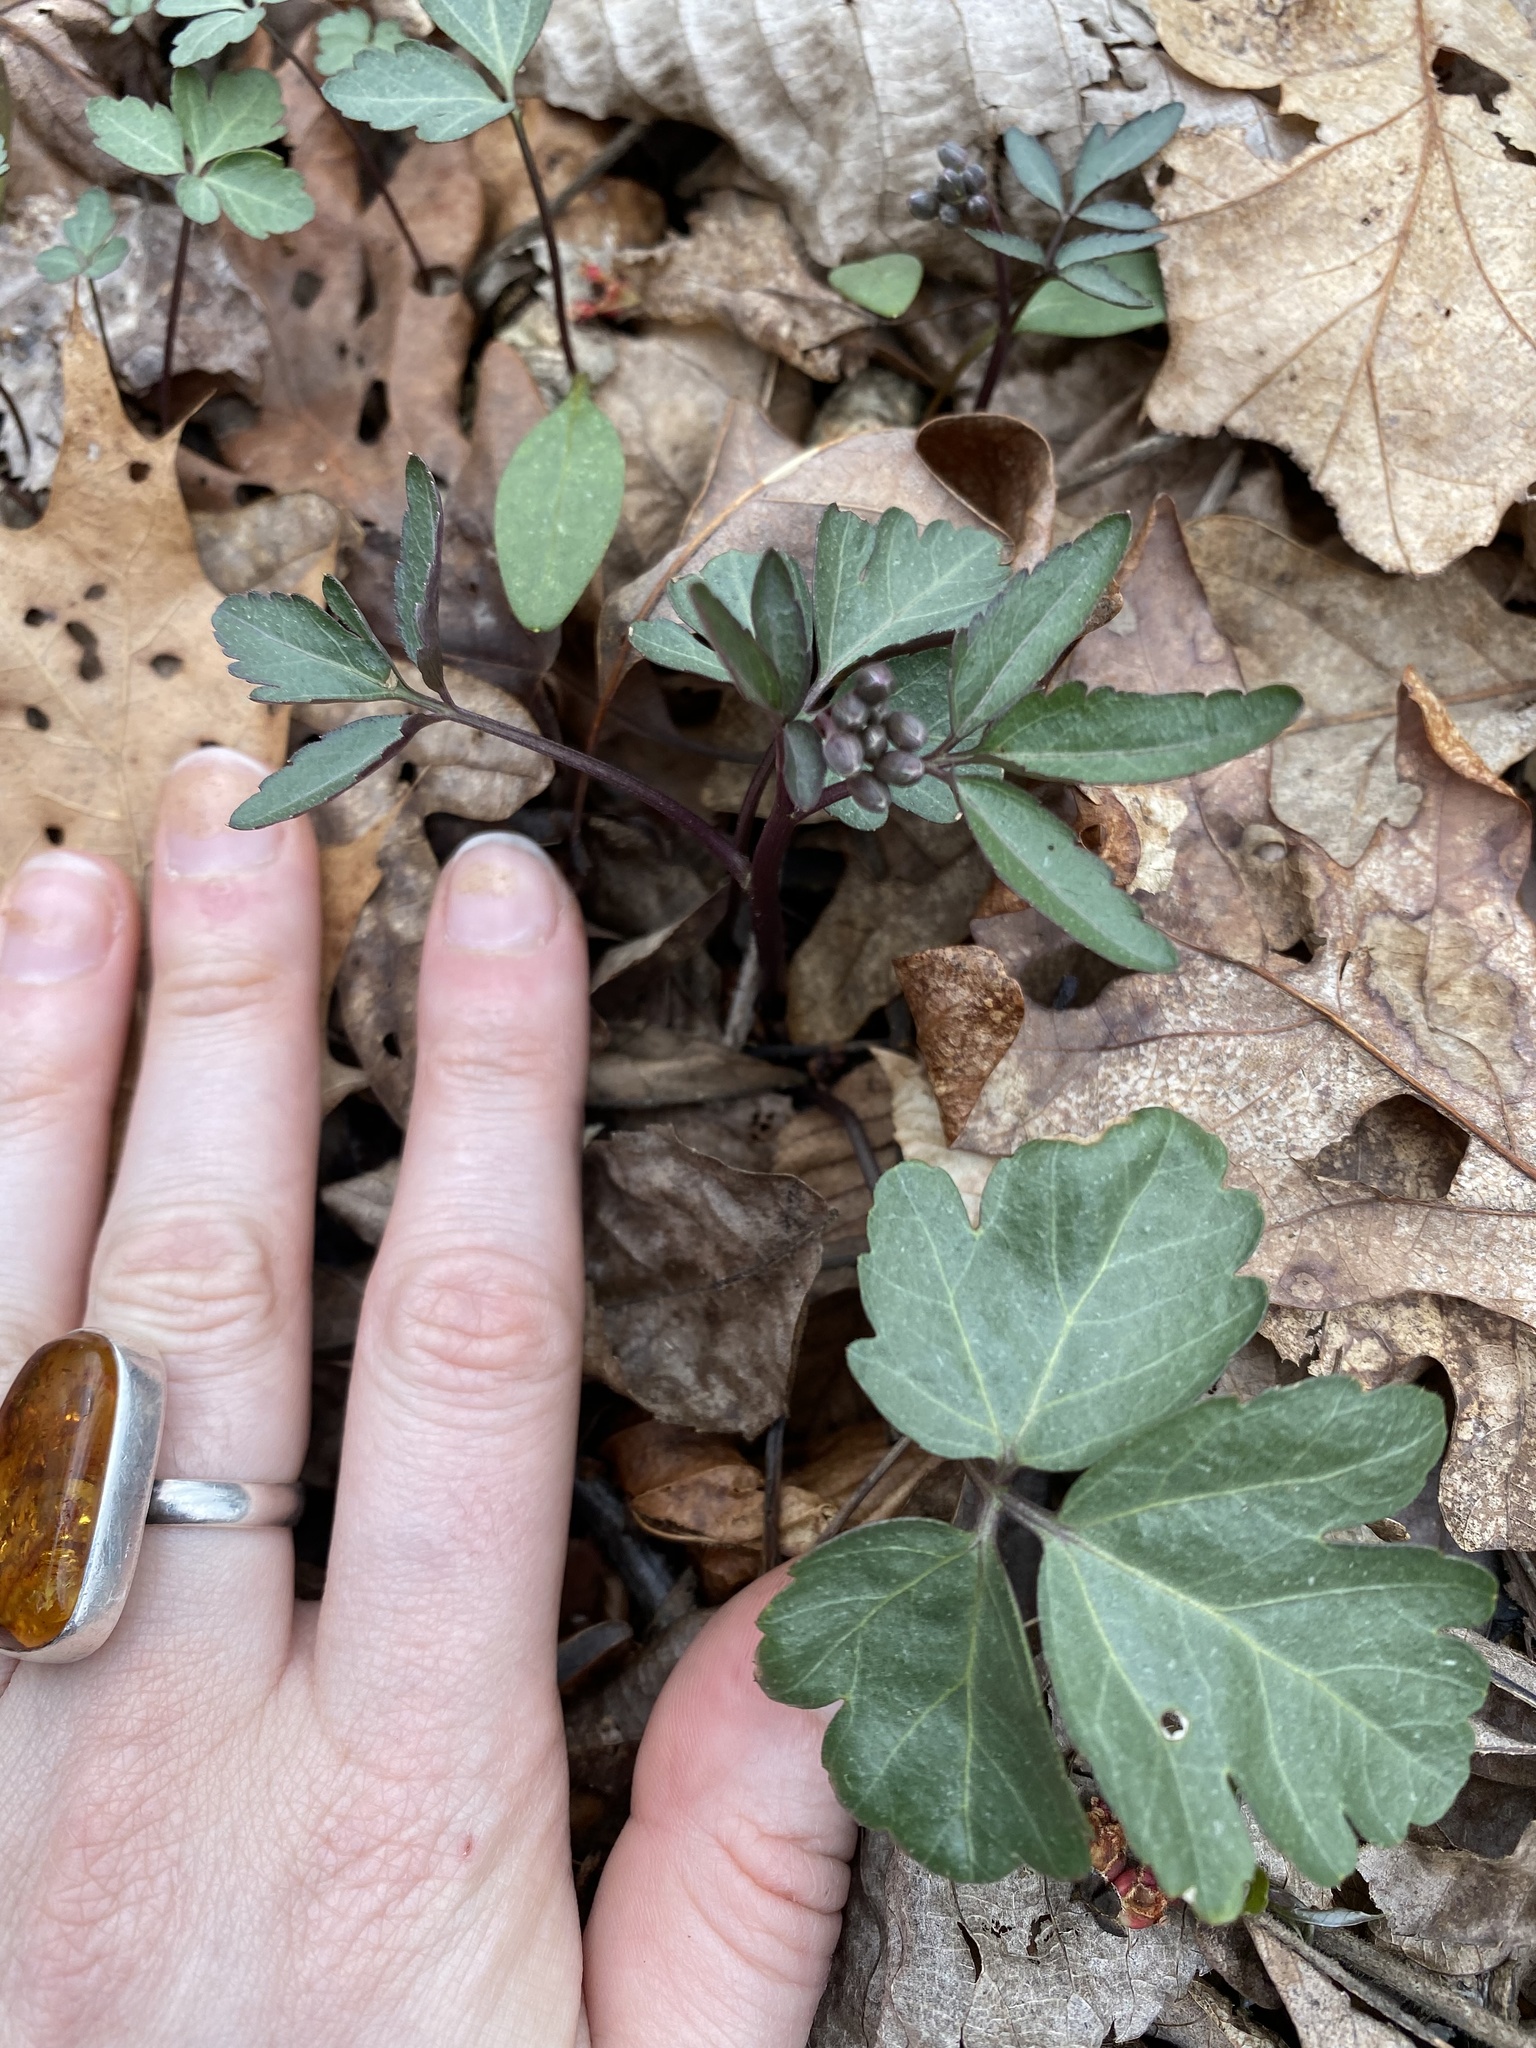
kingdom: Plantae
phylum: Tracheophyta
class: Magnoliopsida
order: Brassicales
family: Brassicaceae
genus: Cardamine
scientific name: Cardamine angustata
